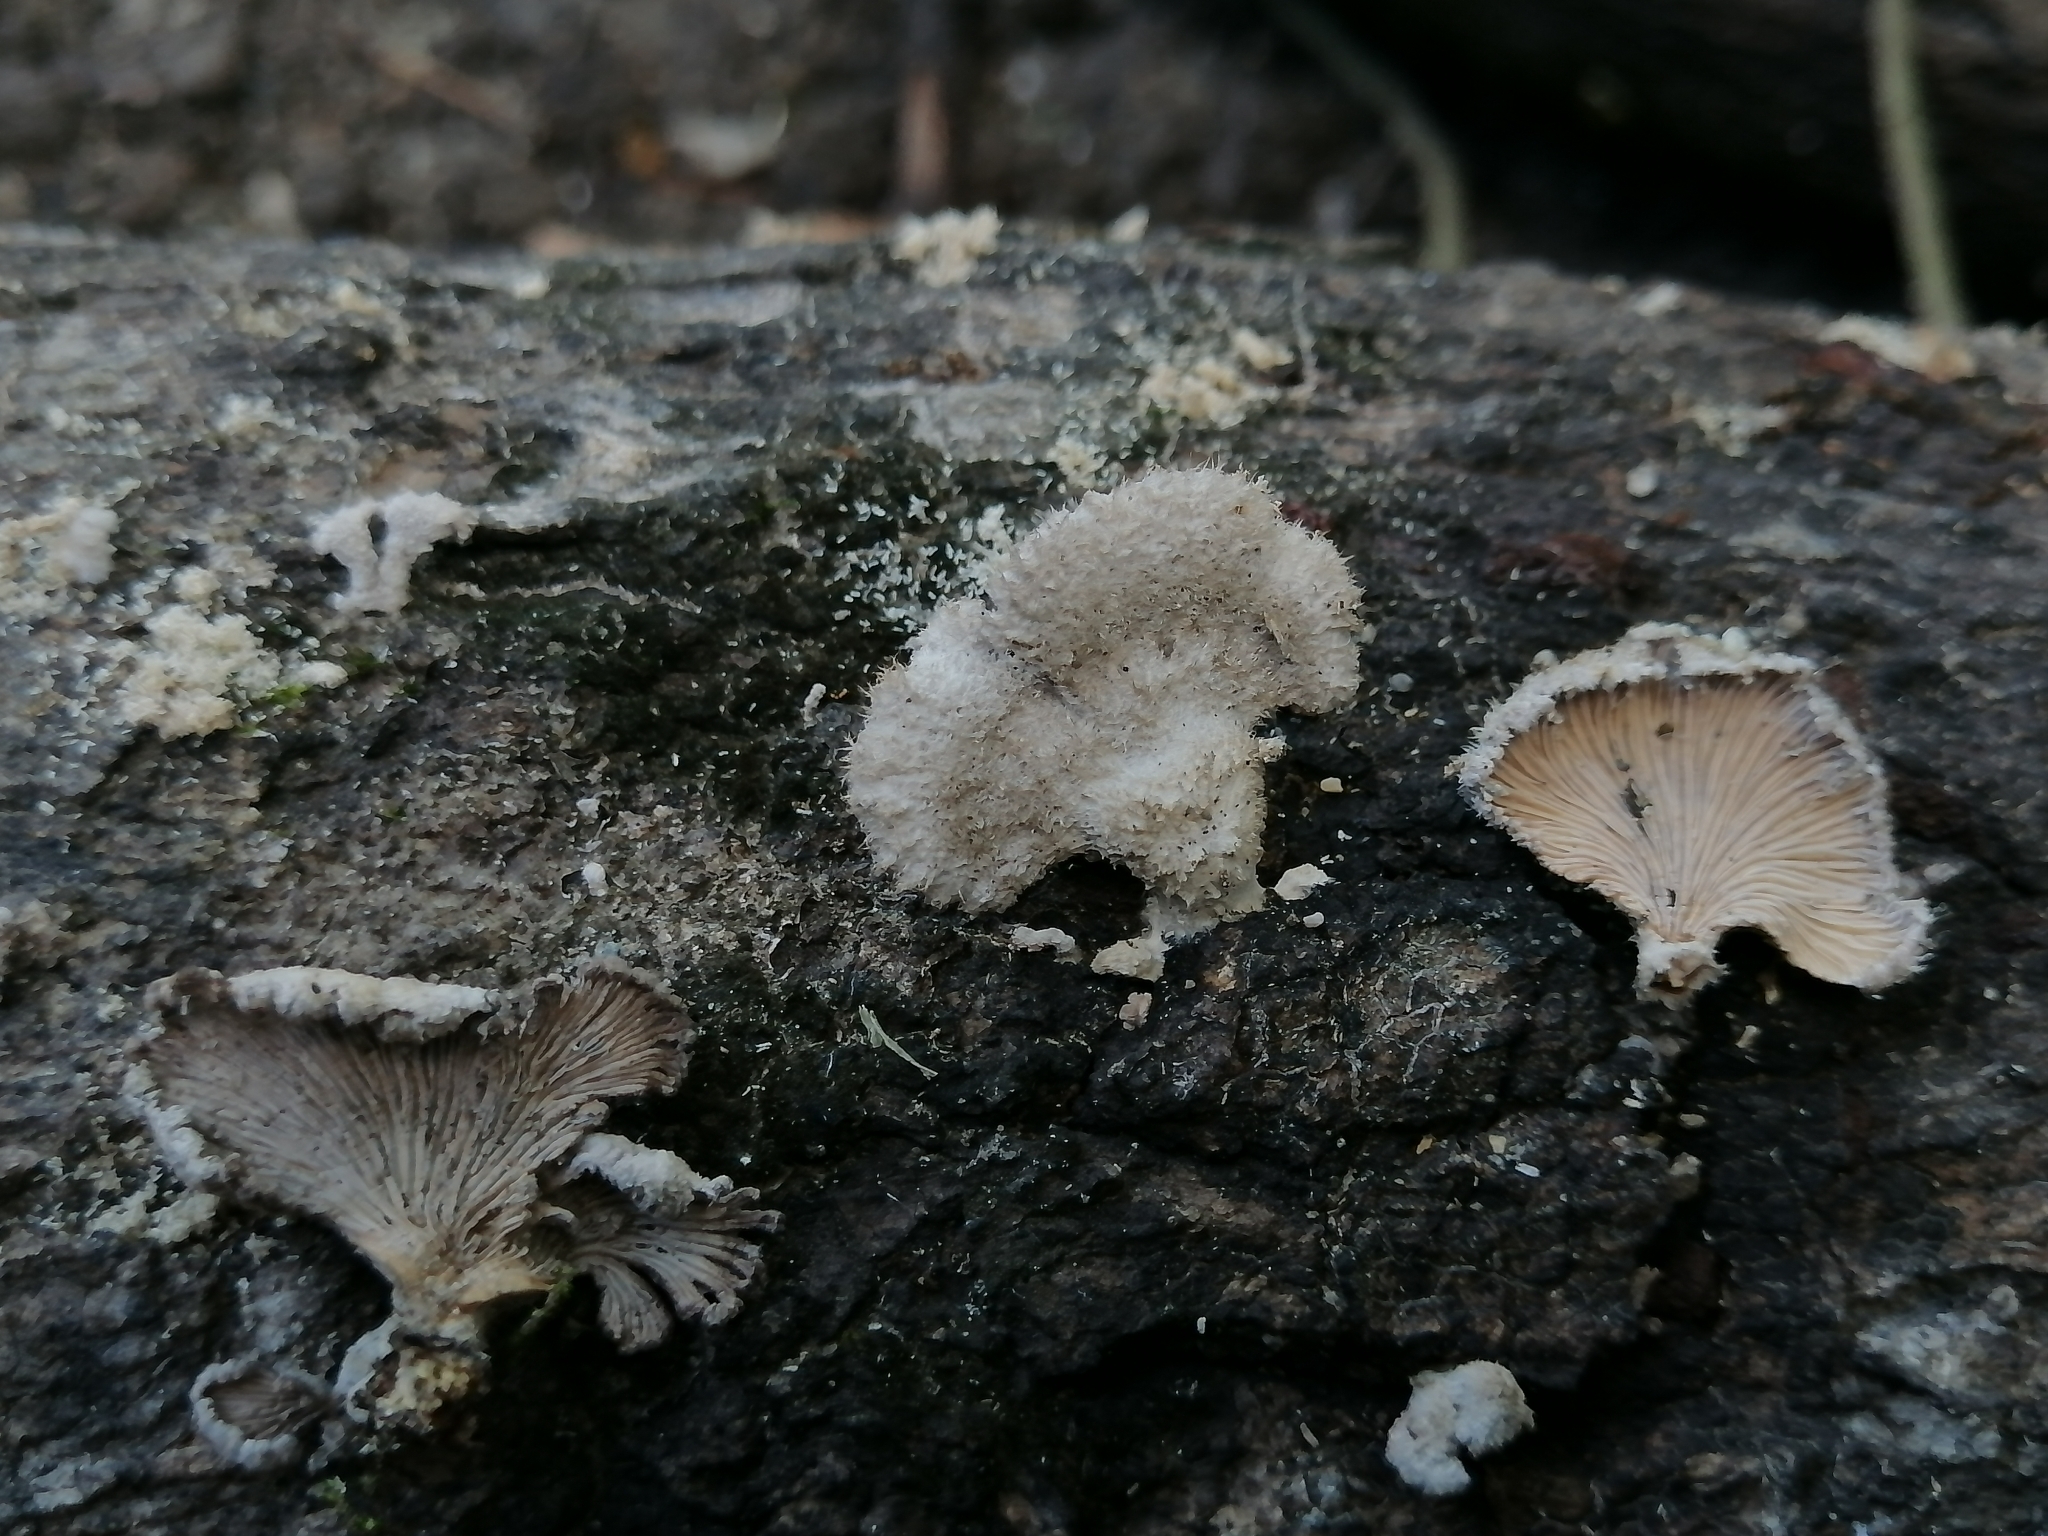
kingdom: Fungi
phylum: Basidiomycota
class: Agaricomycetes
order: Agaricales
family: Schizophyllaceae
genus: Schizophyllum
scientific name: Schizophyllum commune
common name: Common porecrust
